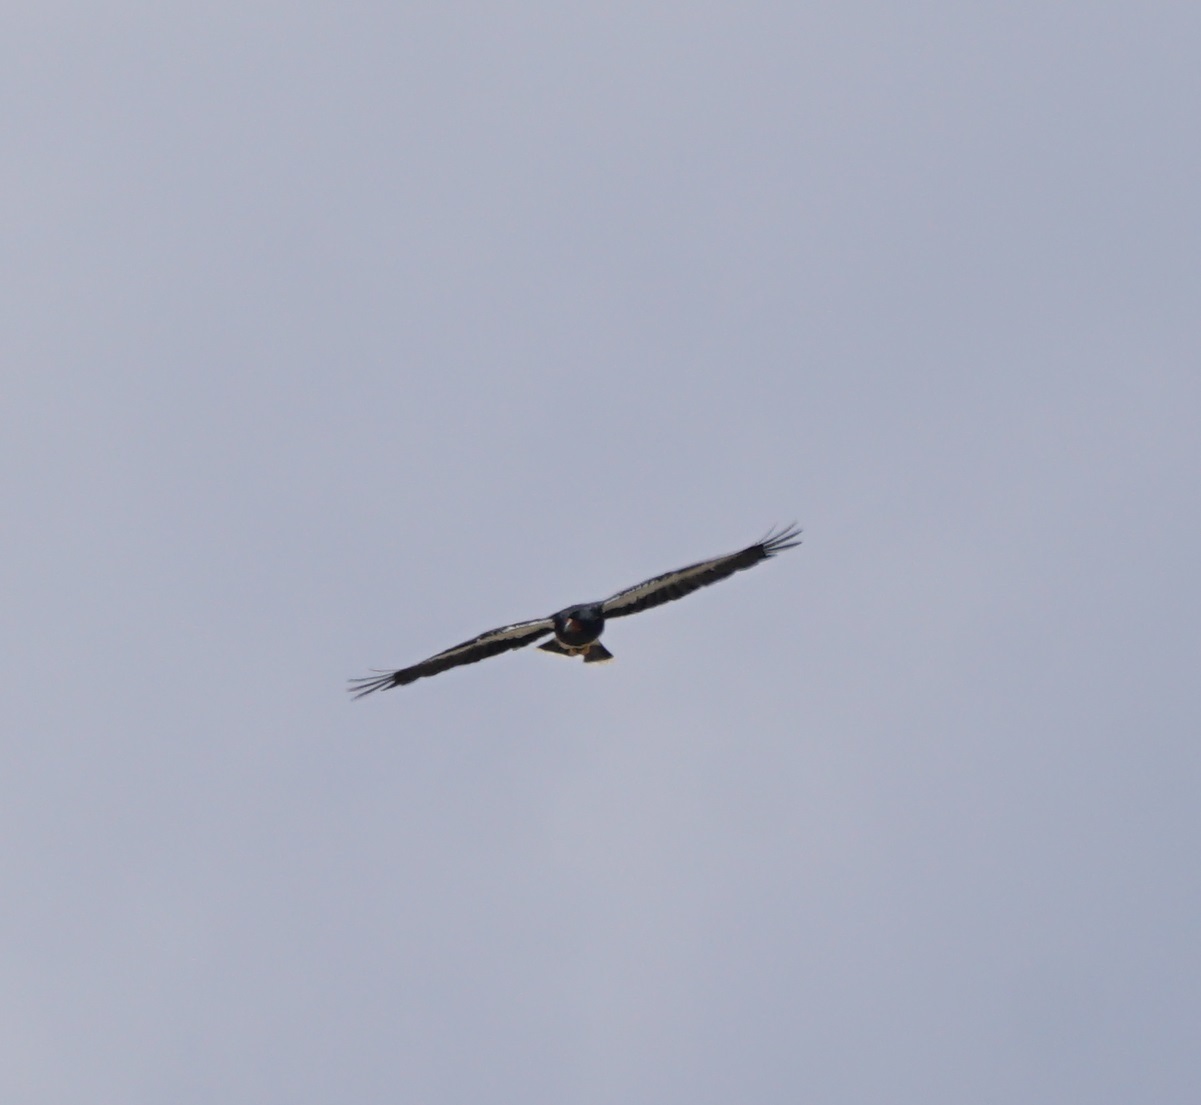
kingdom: Animalia
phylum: Chordata
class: Aves
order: Falconiformes
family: Falconidae
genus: Daptrius
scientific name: Daptrius
